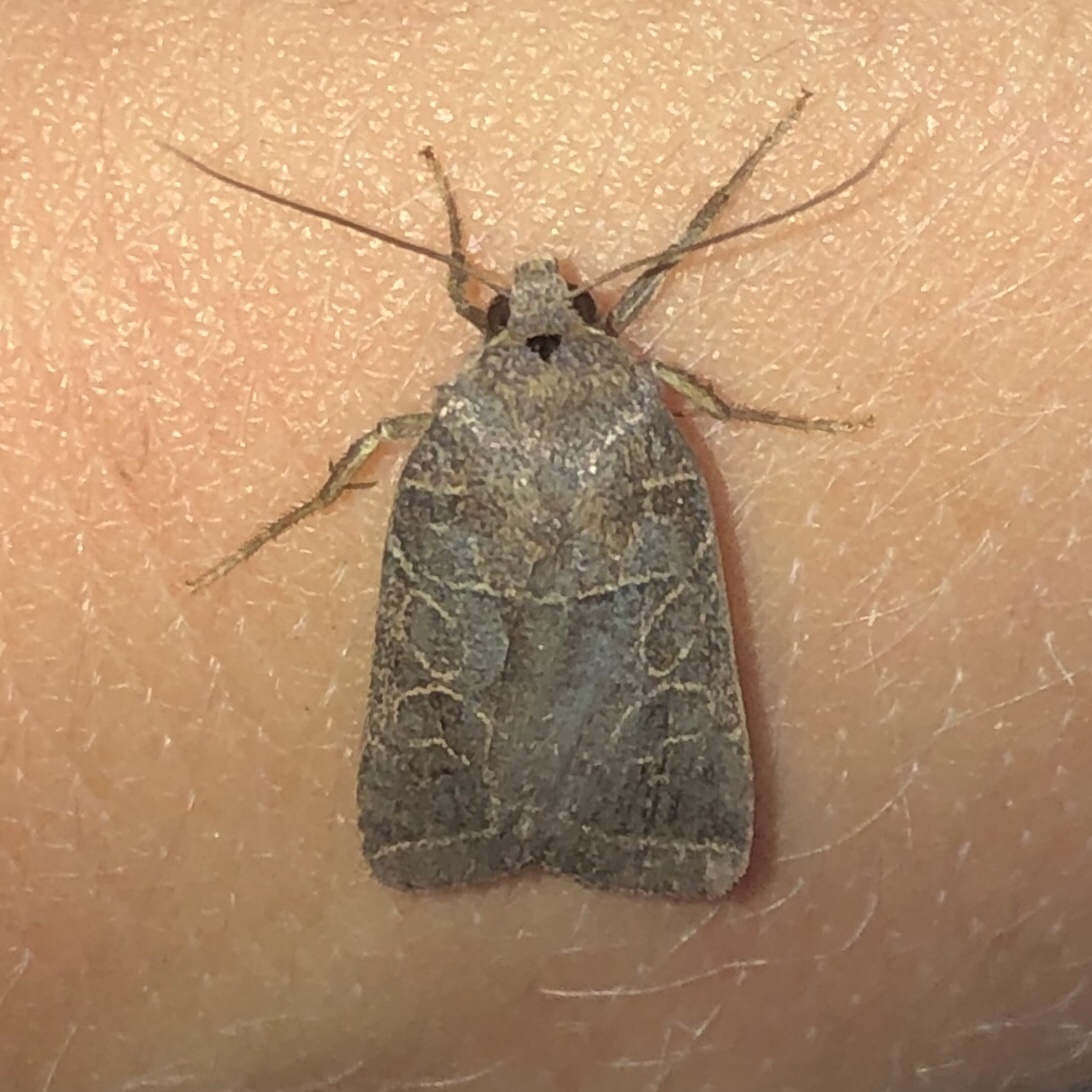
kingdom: Animalia
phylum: Arthropoda
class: Insecta
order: Lepidoptera
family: Noctuidae
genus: Orthodes
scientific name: Orthodes majuscula
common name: Rustic quaker
